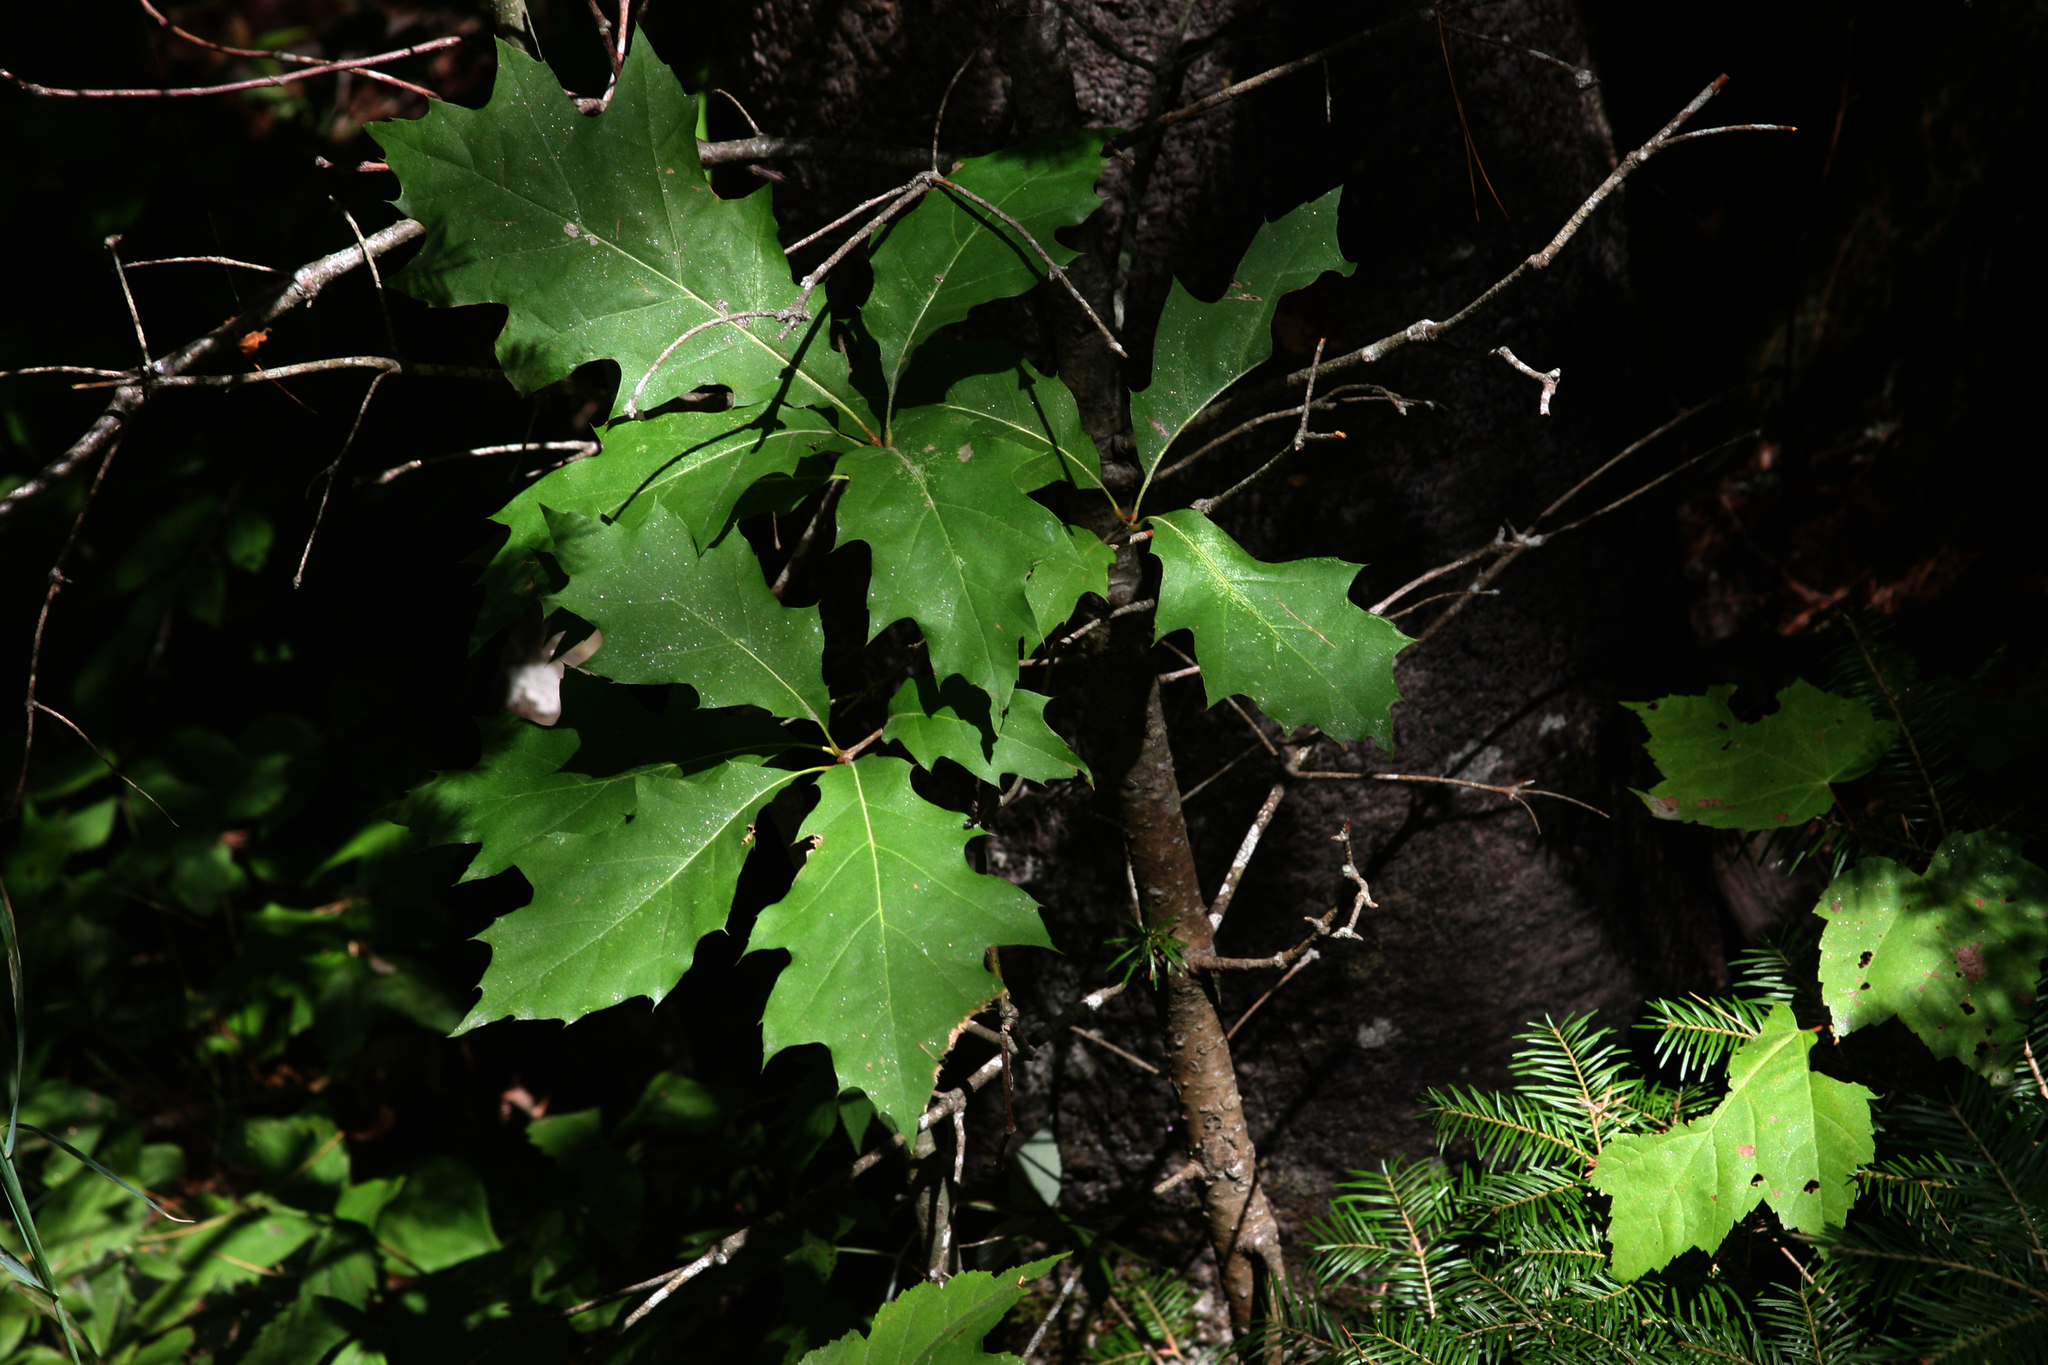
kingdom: Plantae
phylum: Tracheophyta
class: Magnoliopsida
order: Fagales
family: Fagaceae
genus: Quercus
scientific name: Quercus rubra
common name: Red oak
